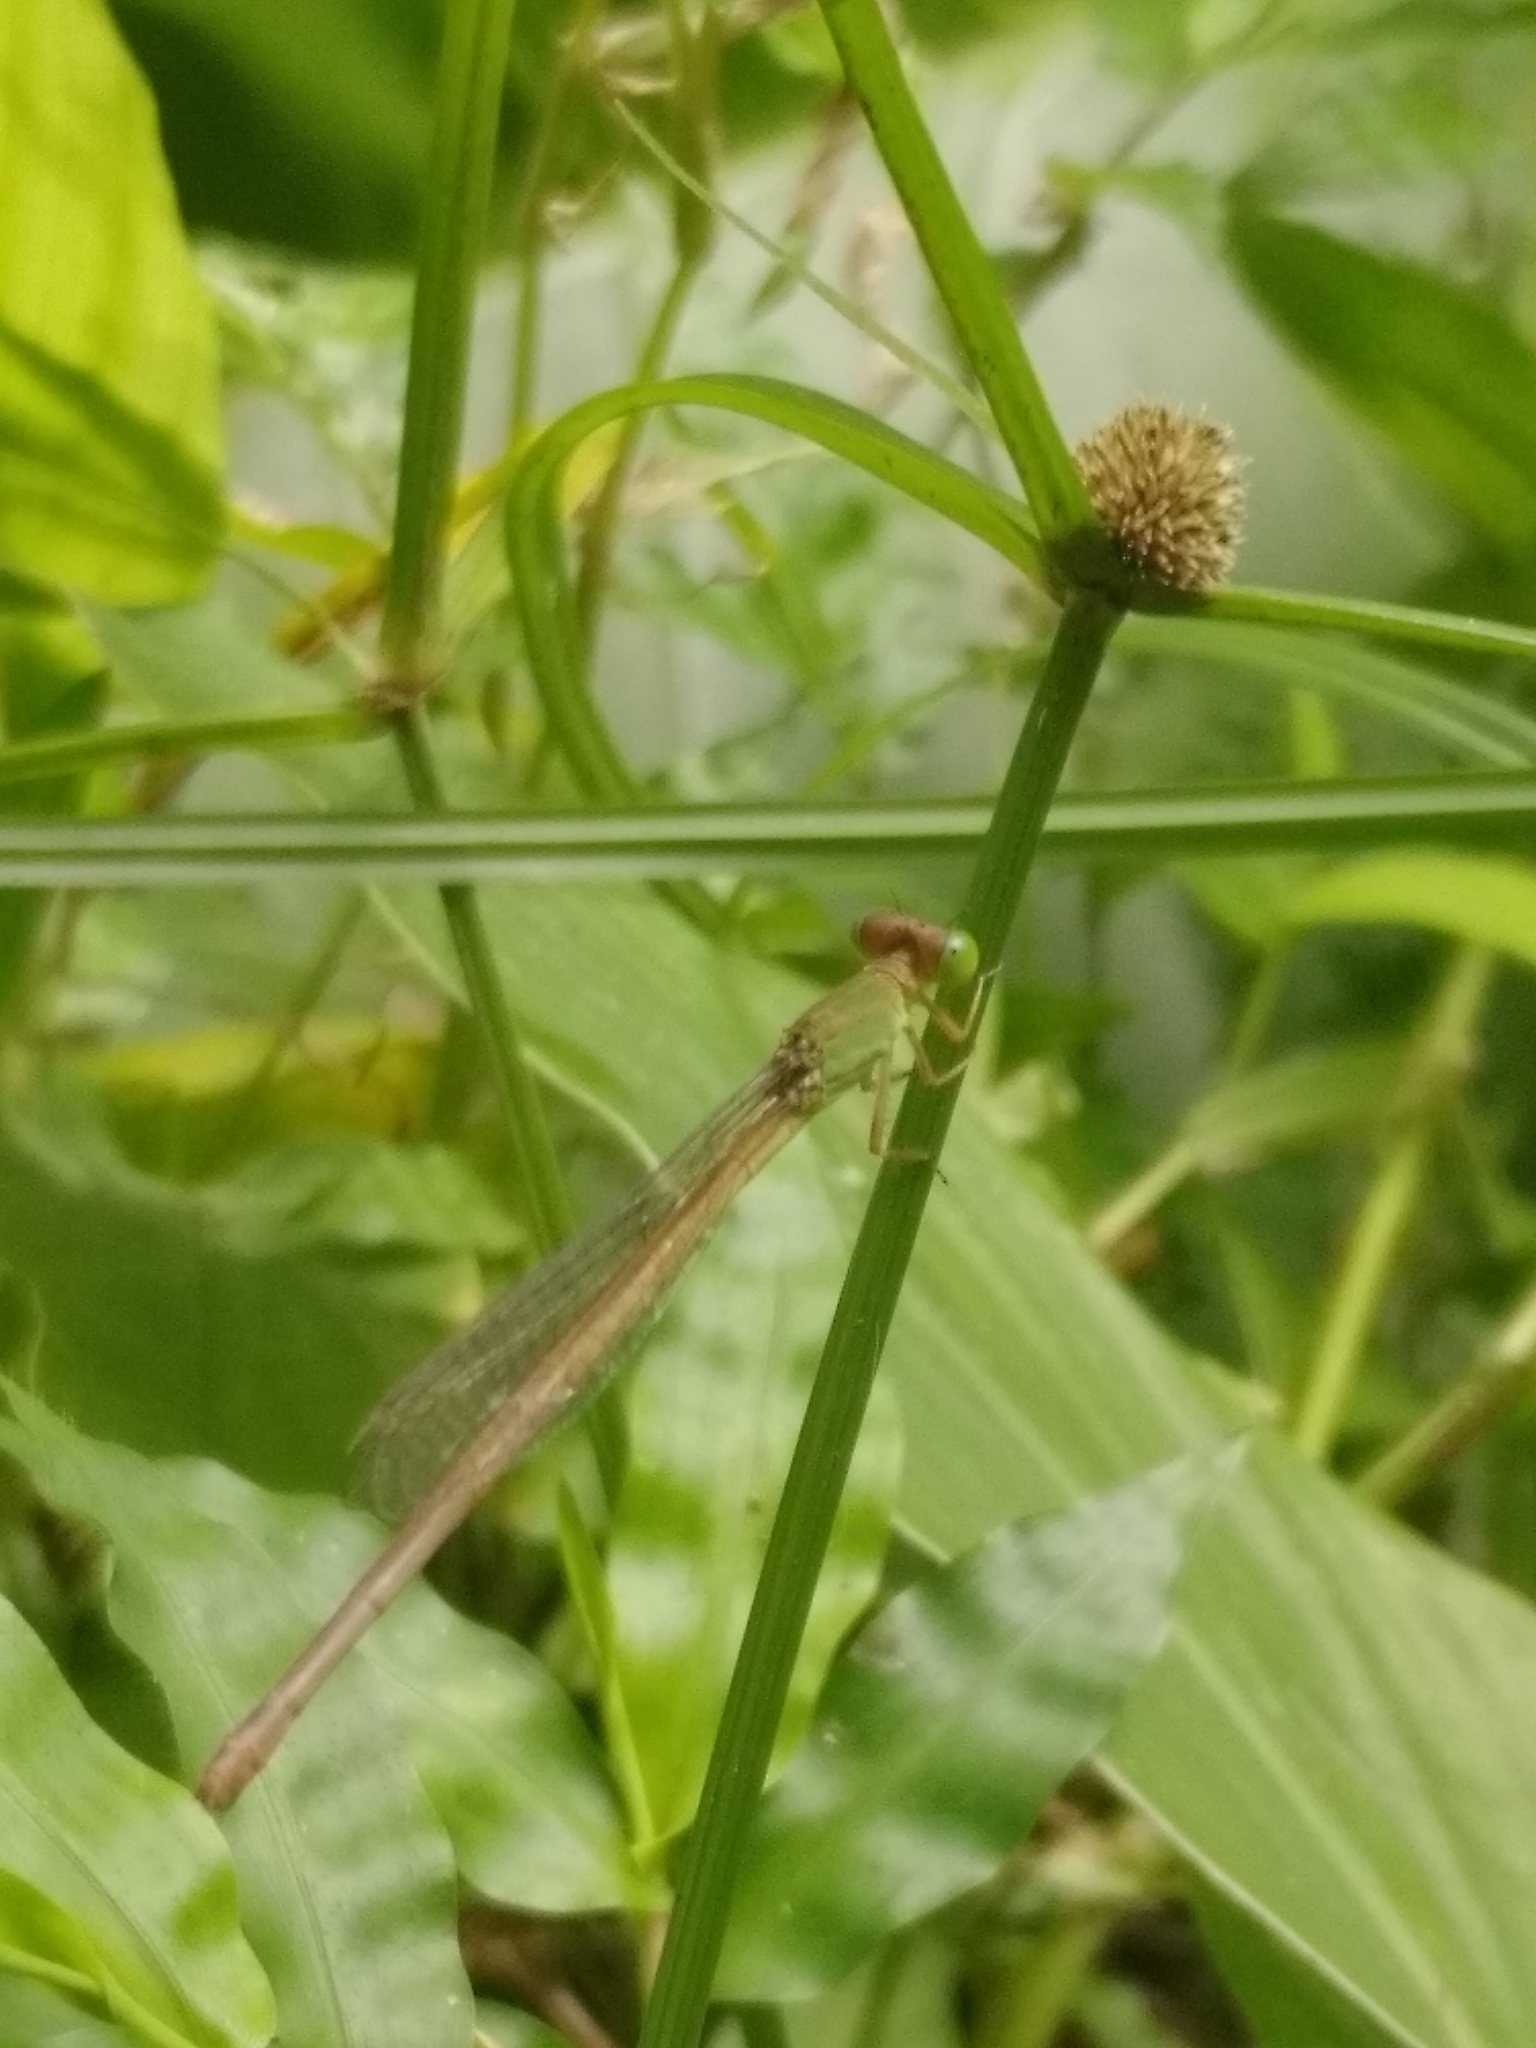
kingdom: Animalia
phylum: Arthropoda
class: Insecta
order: Odonata
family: Coenagrionidae
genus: Ceriagrion
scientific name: Ceriagrion coromandelianum
